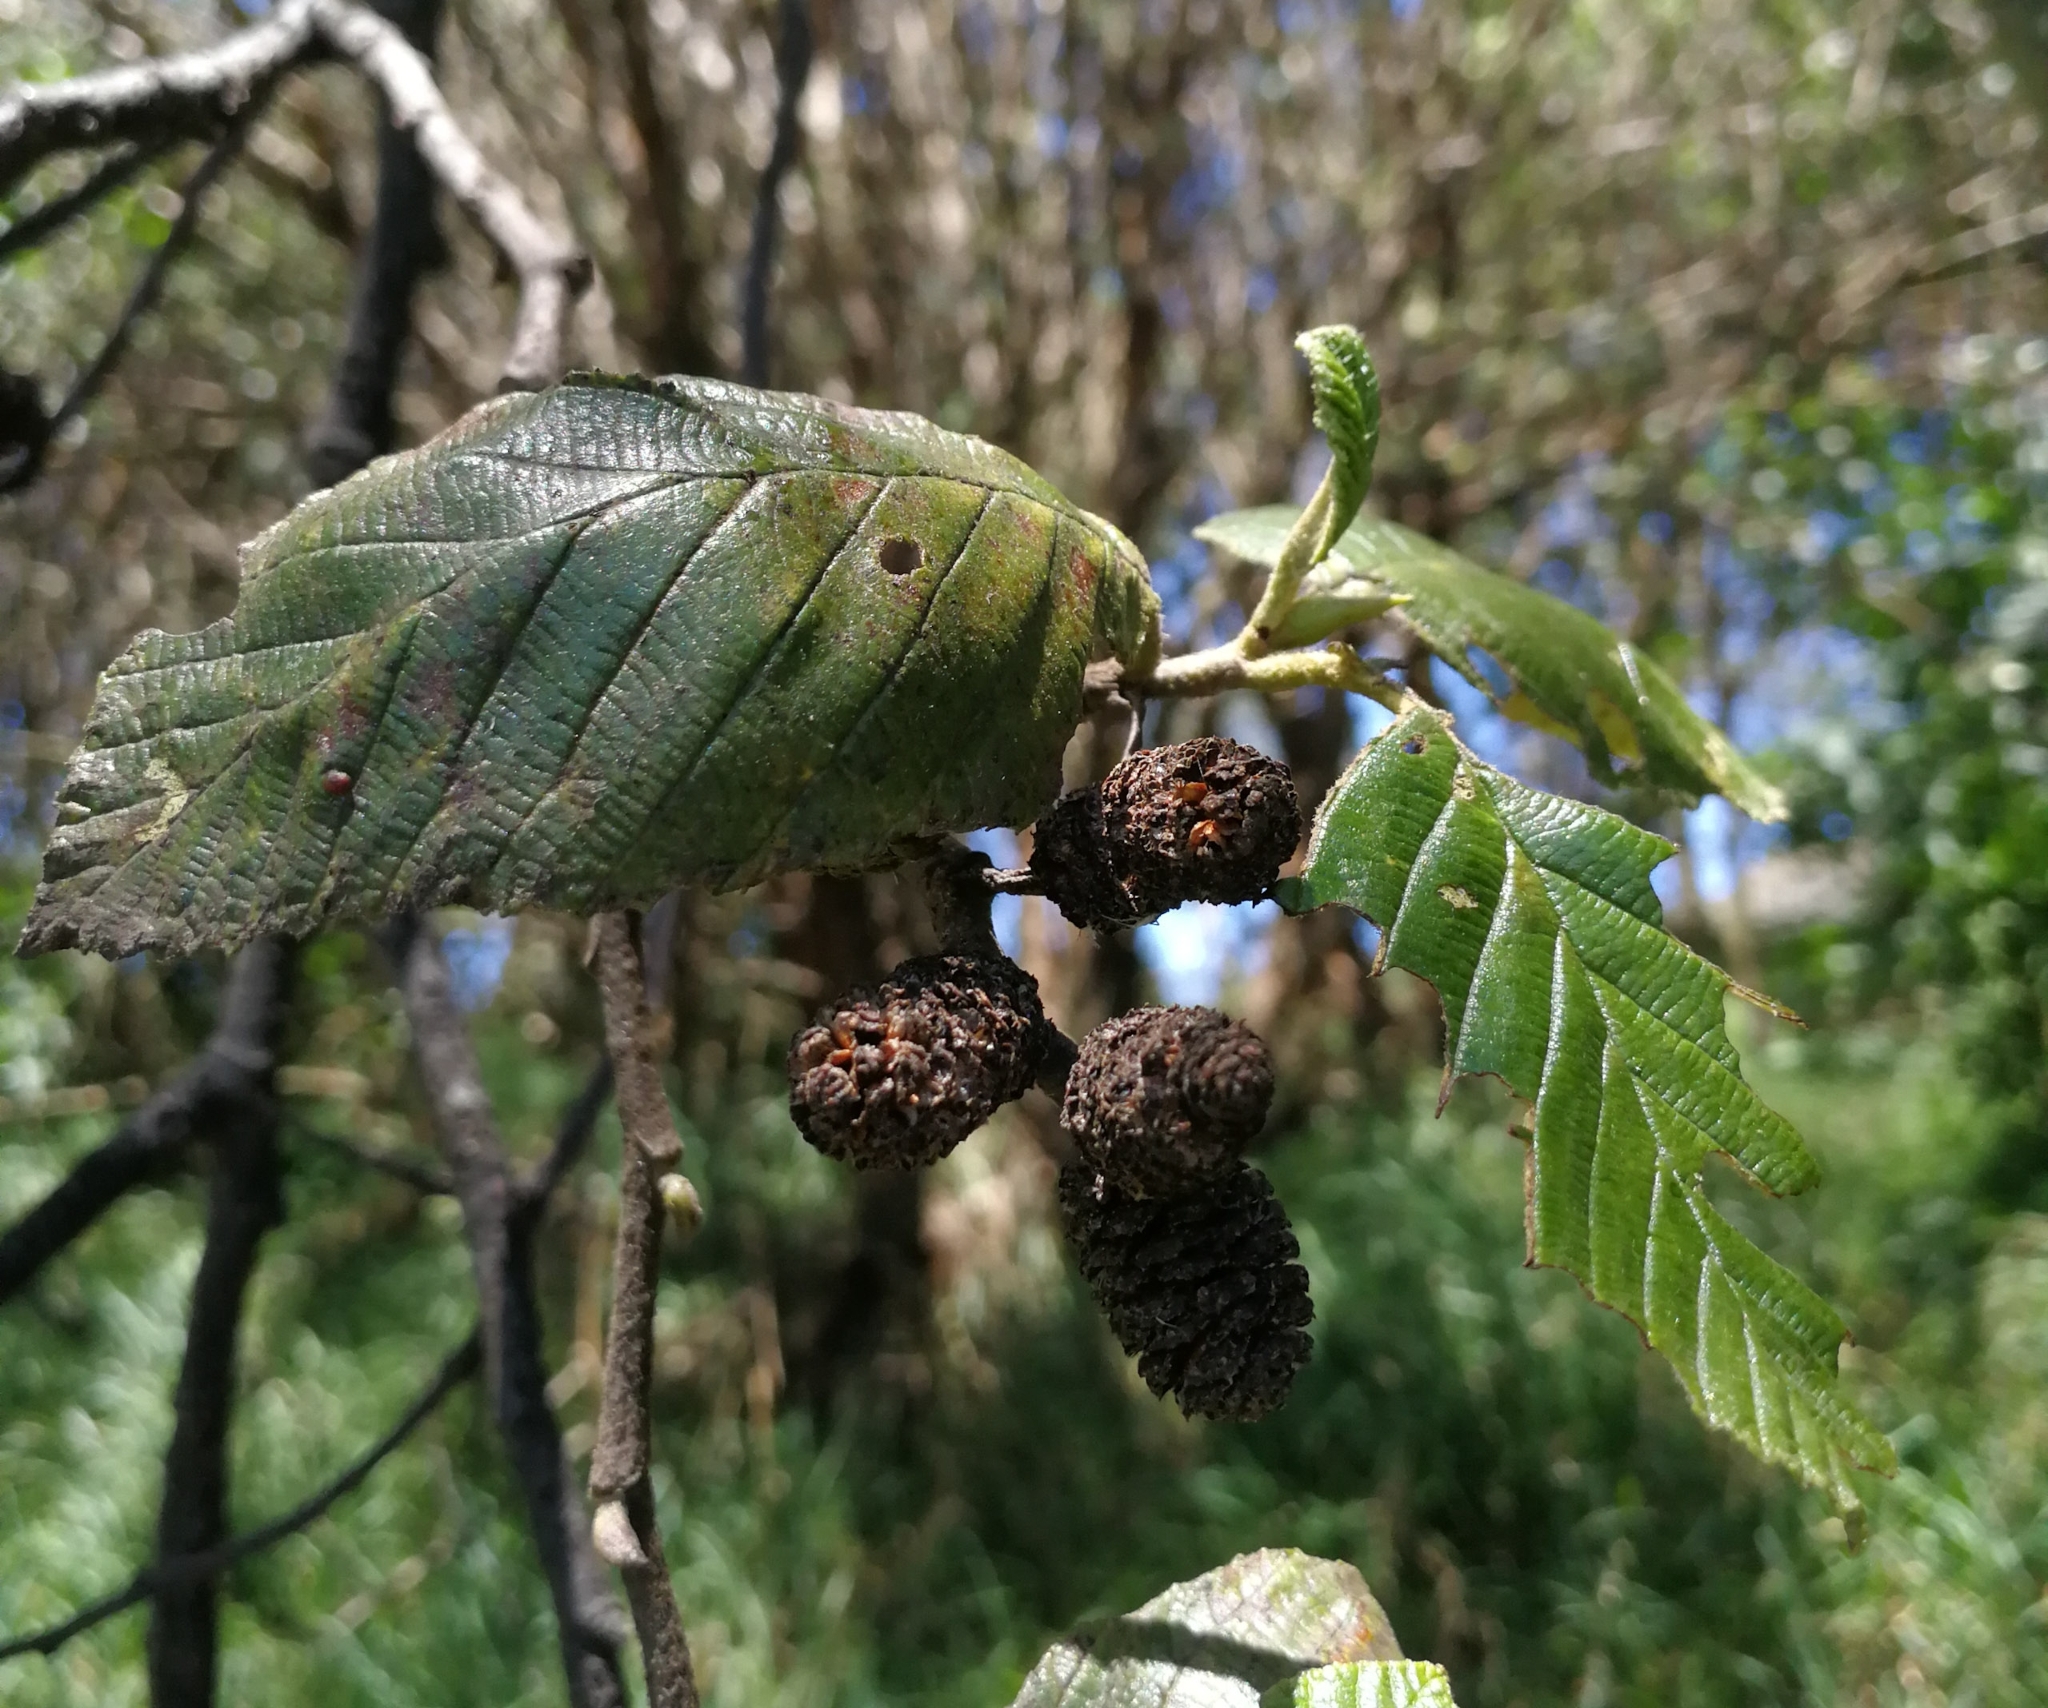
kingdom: Plantae
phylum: Tracheophyta
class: Magnoliopsida
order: Fagales
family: Betulaceae
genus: Alnus
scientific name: Alnus acuminata
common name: Alder
